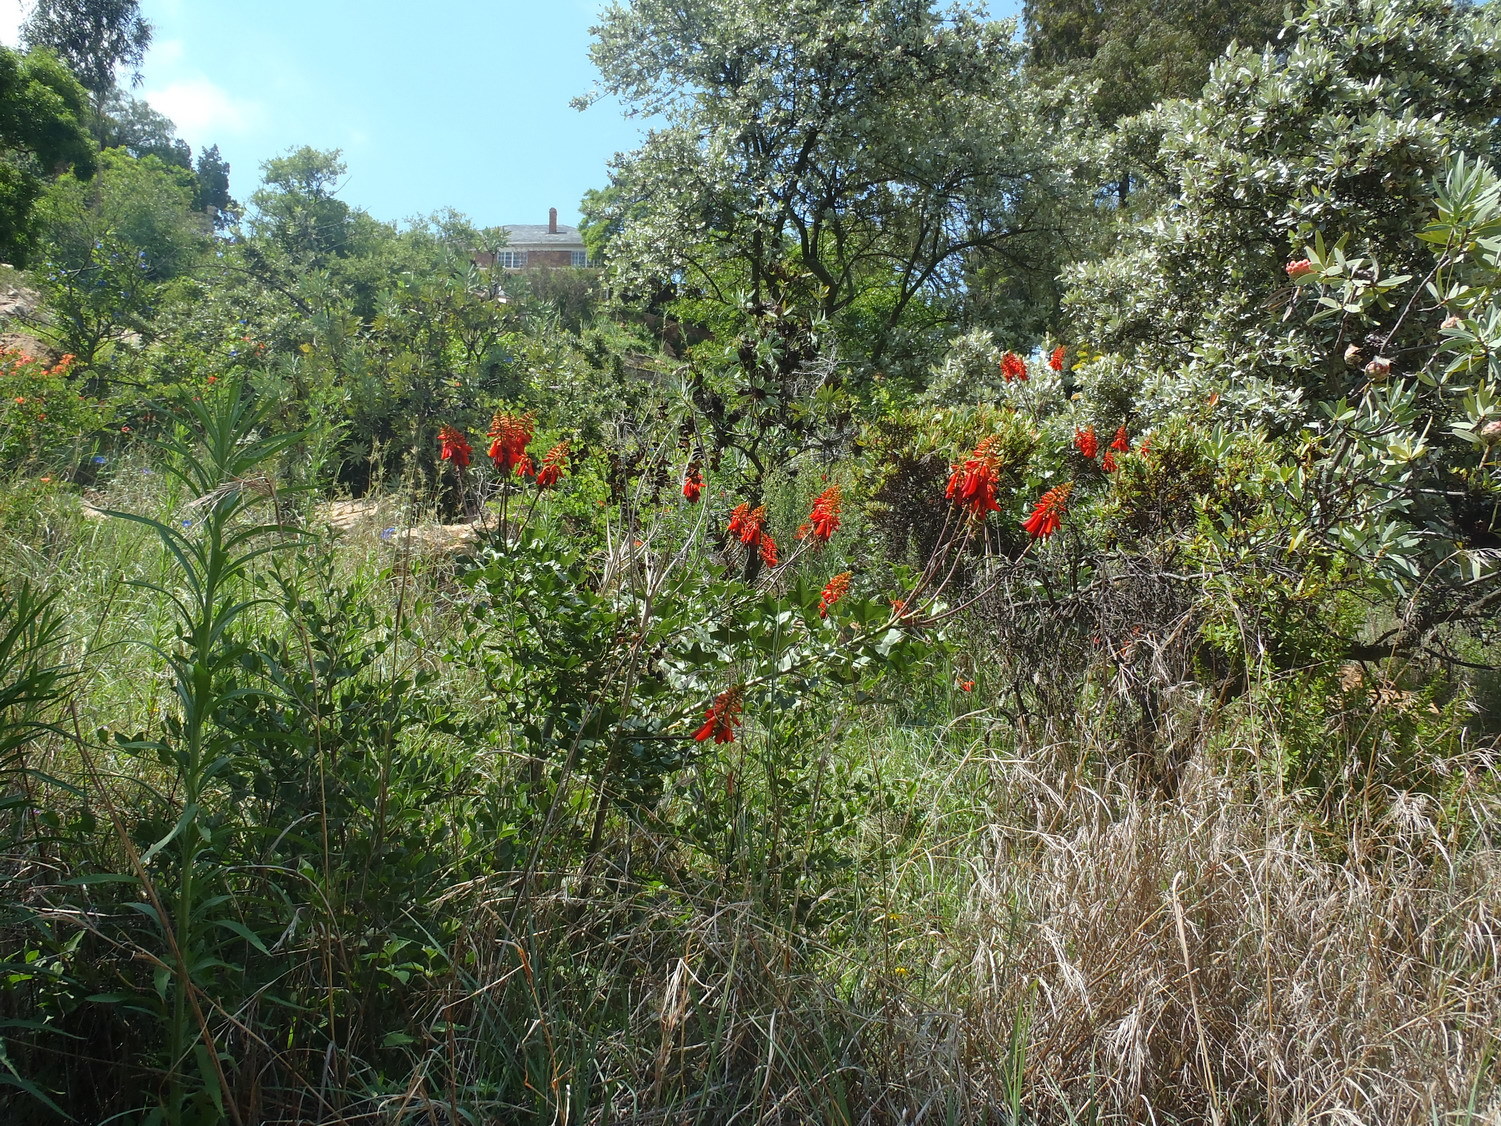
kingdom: Plantae
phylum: Tracheophyta
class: Magnoliopsida
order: Fabales
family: Fabaceae
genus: Erythrina
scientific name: Erythrina humeana
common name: Dwarf coral tree
